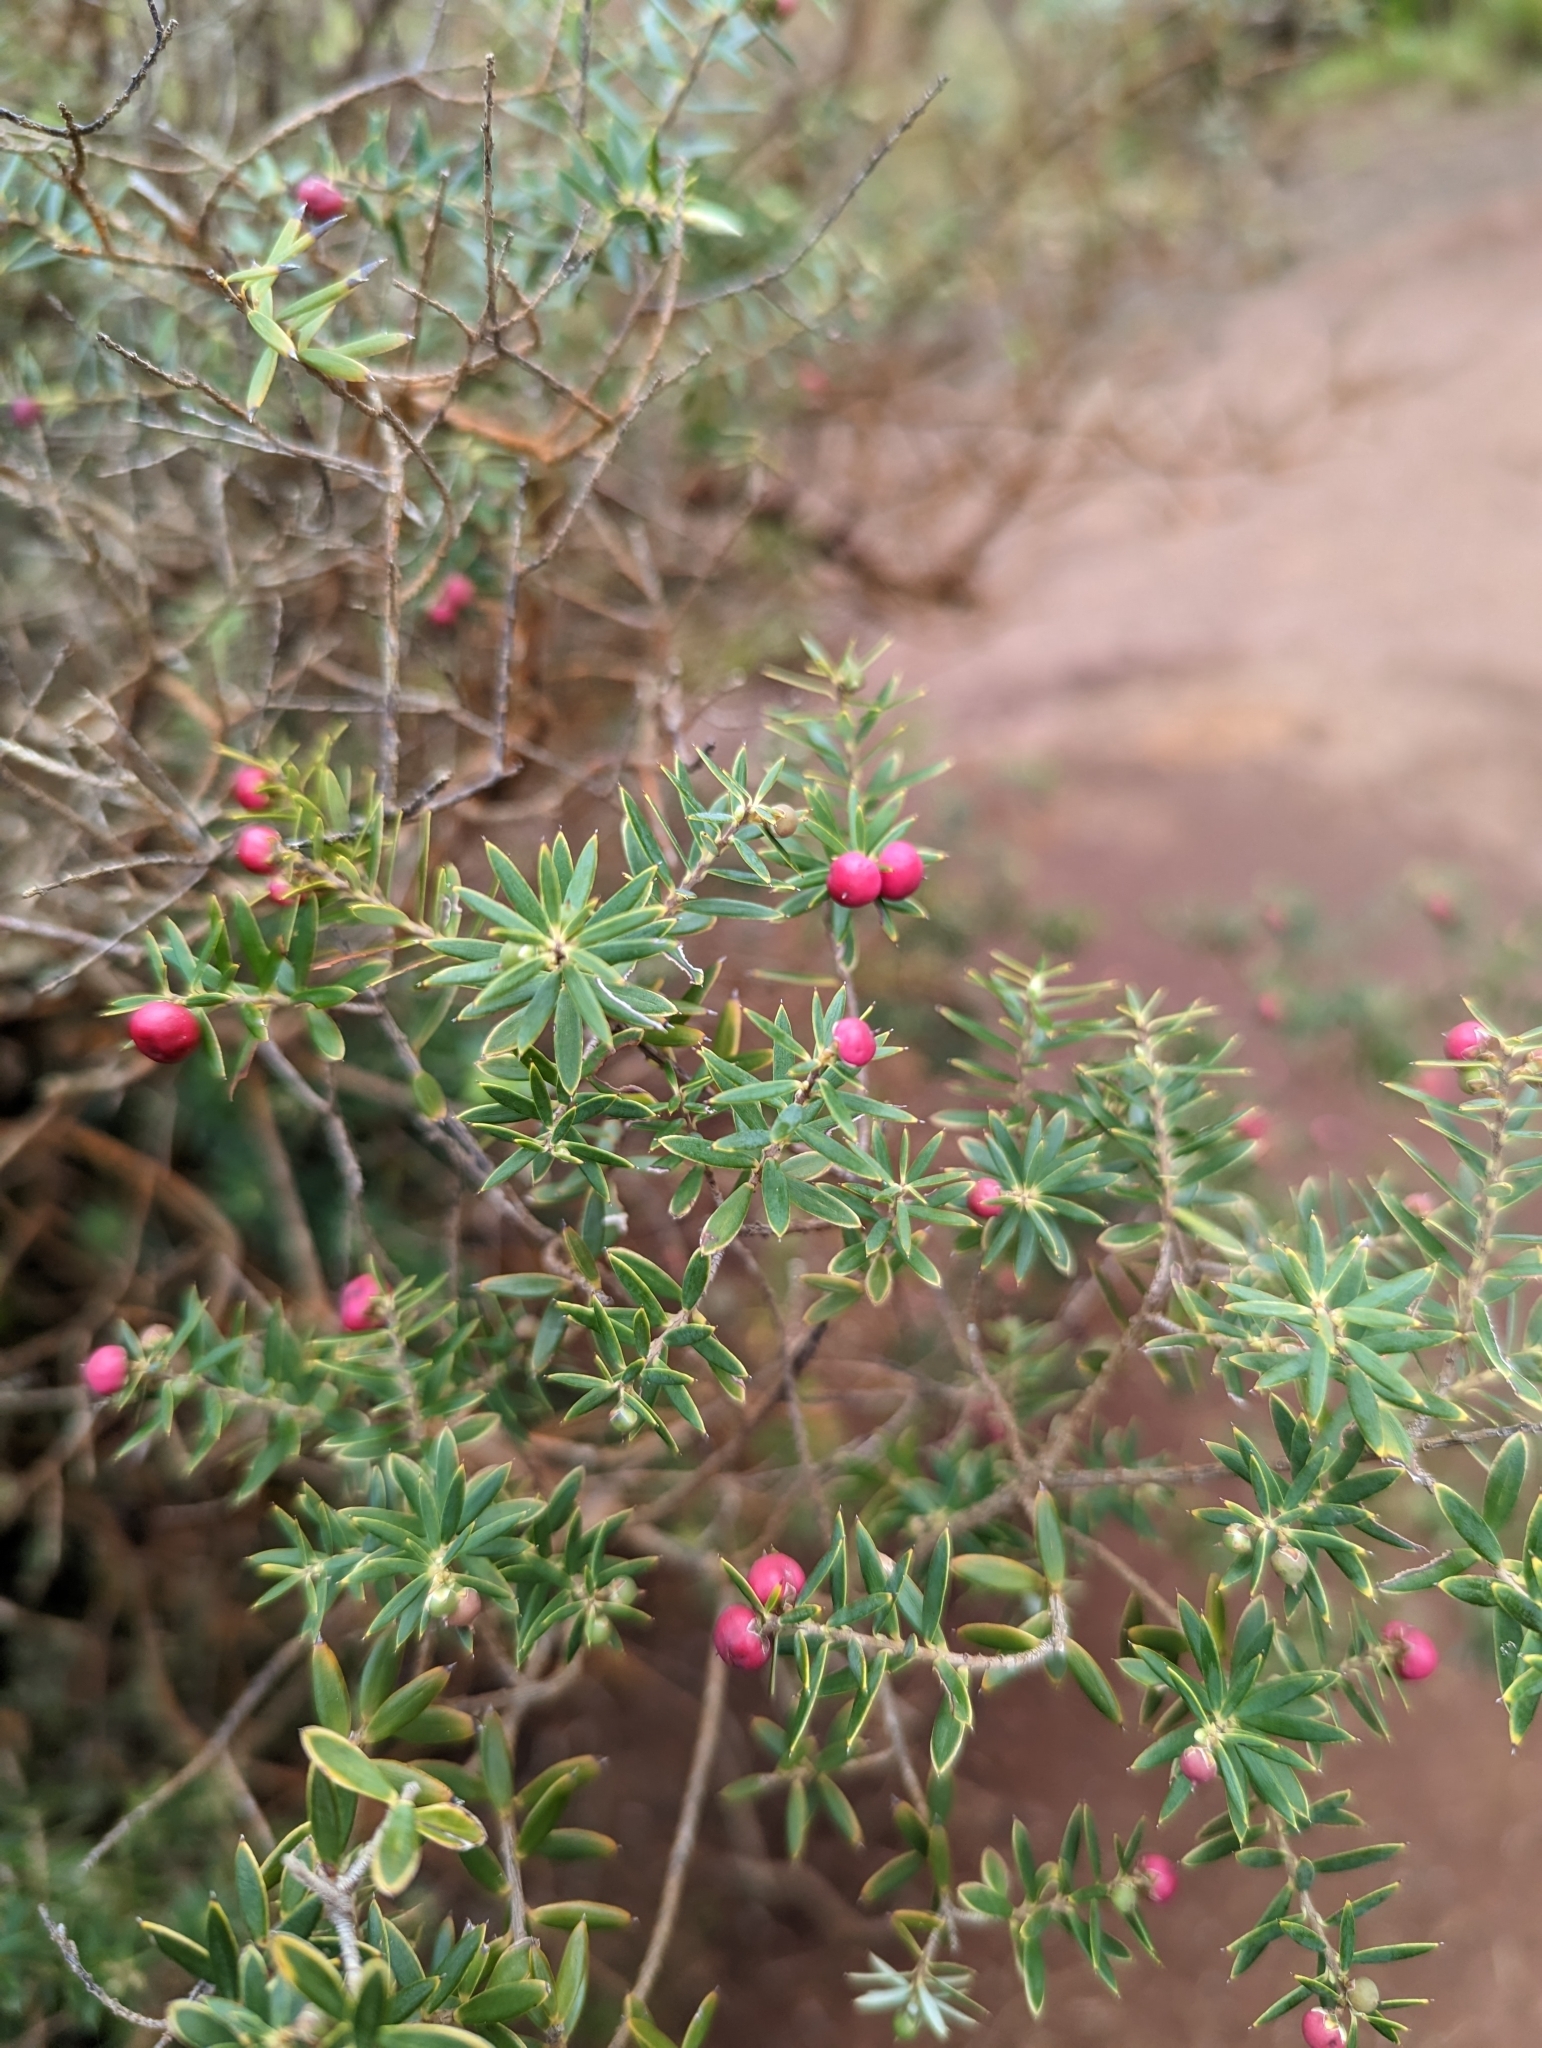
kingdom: Plantae
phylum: Tracheophyta
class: Magnoliopsida
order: Ericales
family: Ericaceae
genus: Leptecophylla
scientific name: Leptecophylla tameiameiae
